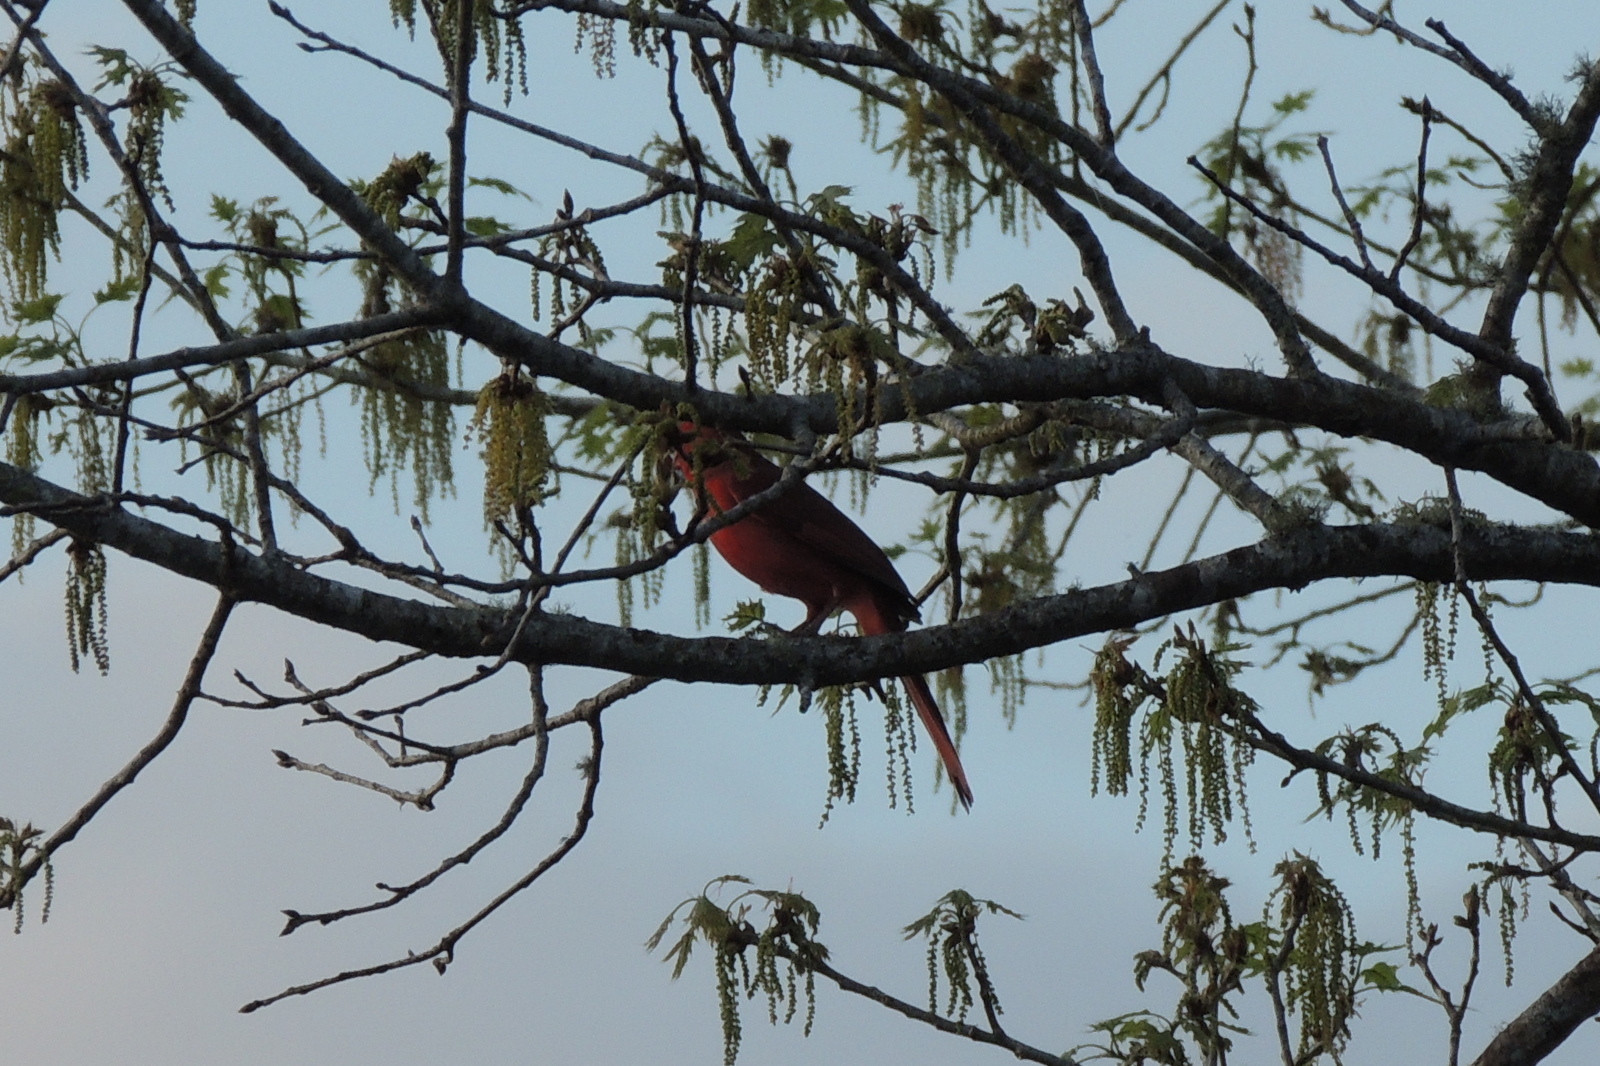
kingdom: Animalia
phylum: Chordata
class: Aves
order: Passeriformes
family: Cardinalidae
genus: Cardinalis
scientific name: Cardinalis cardinalis
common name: Northern cardinal
